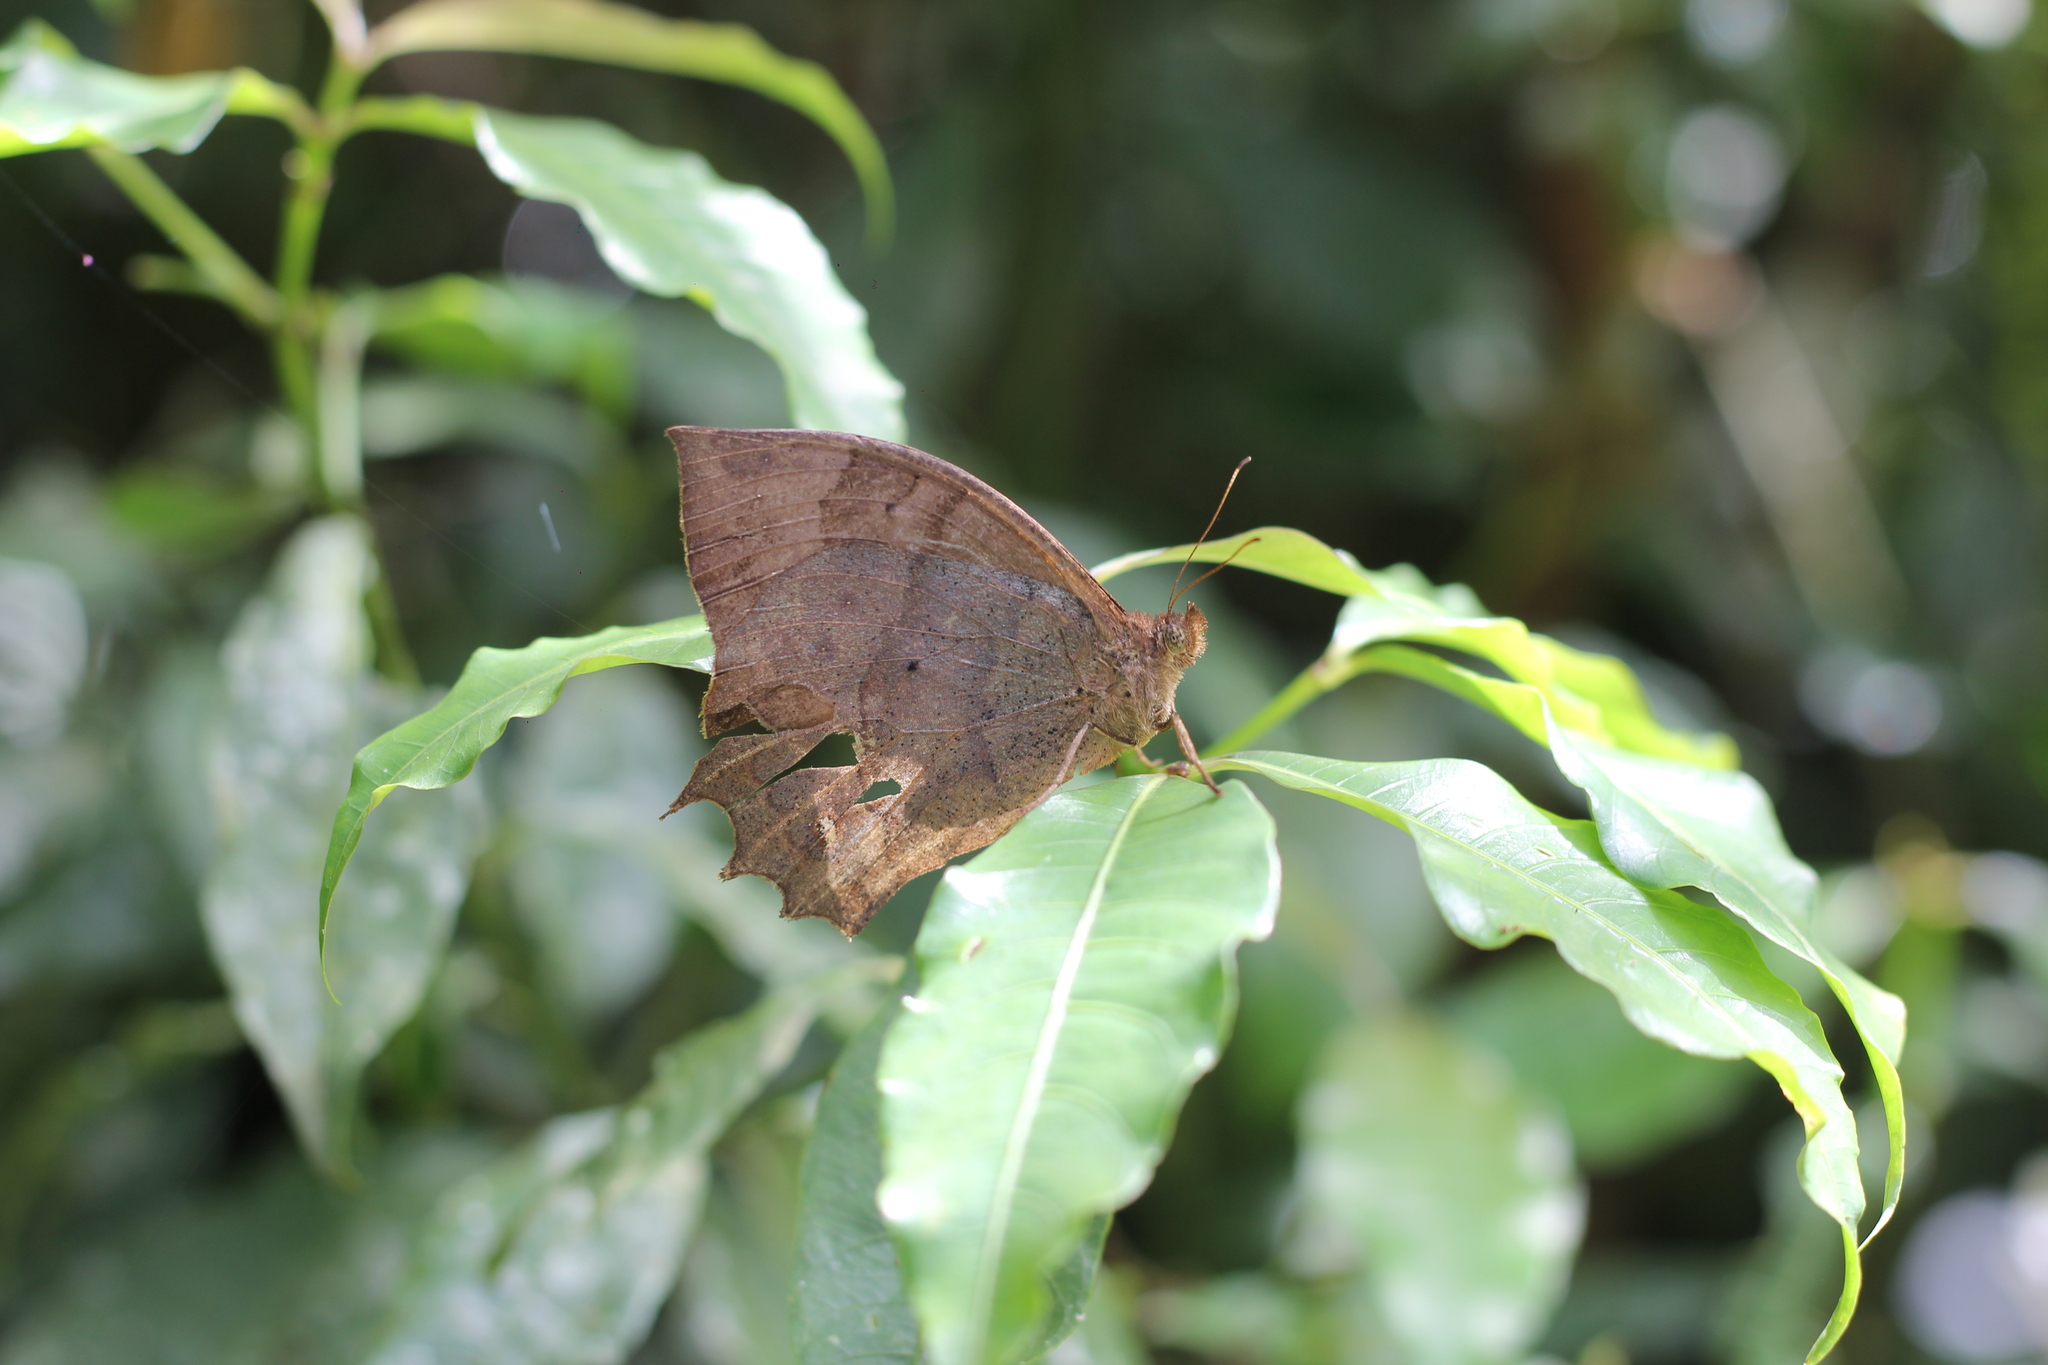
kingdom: Animalia
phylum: Arthropoda
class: Insecta
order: Lepidoptera
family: Nymphalidae
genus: Taguaiba
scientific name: Taguaiba
